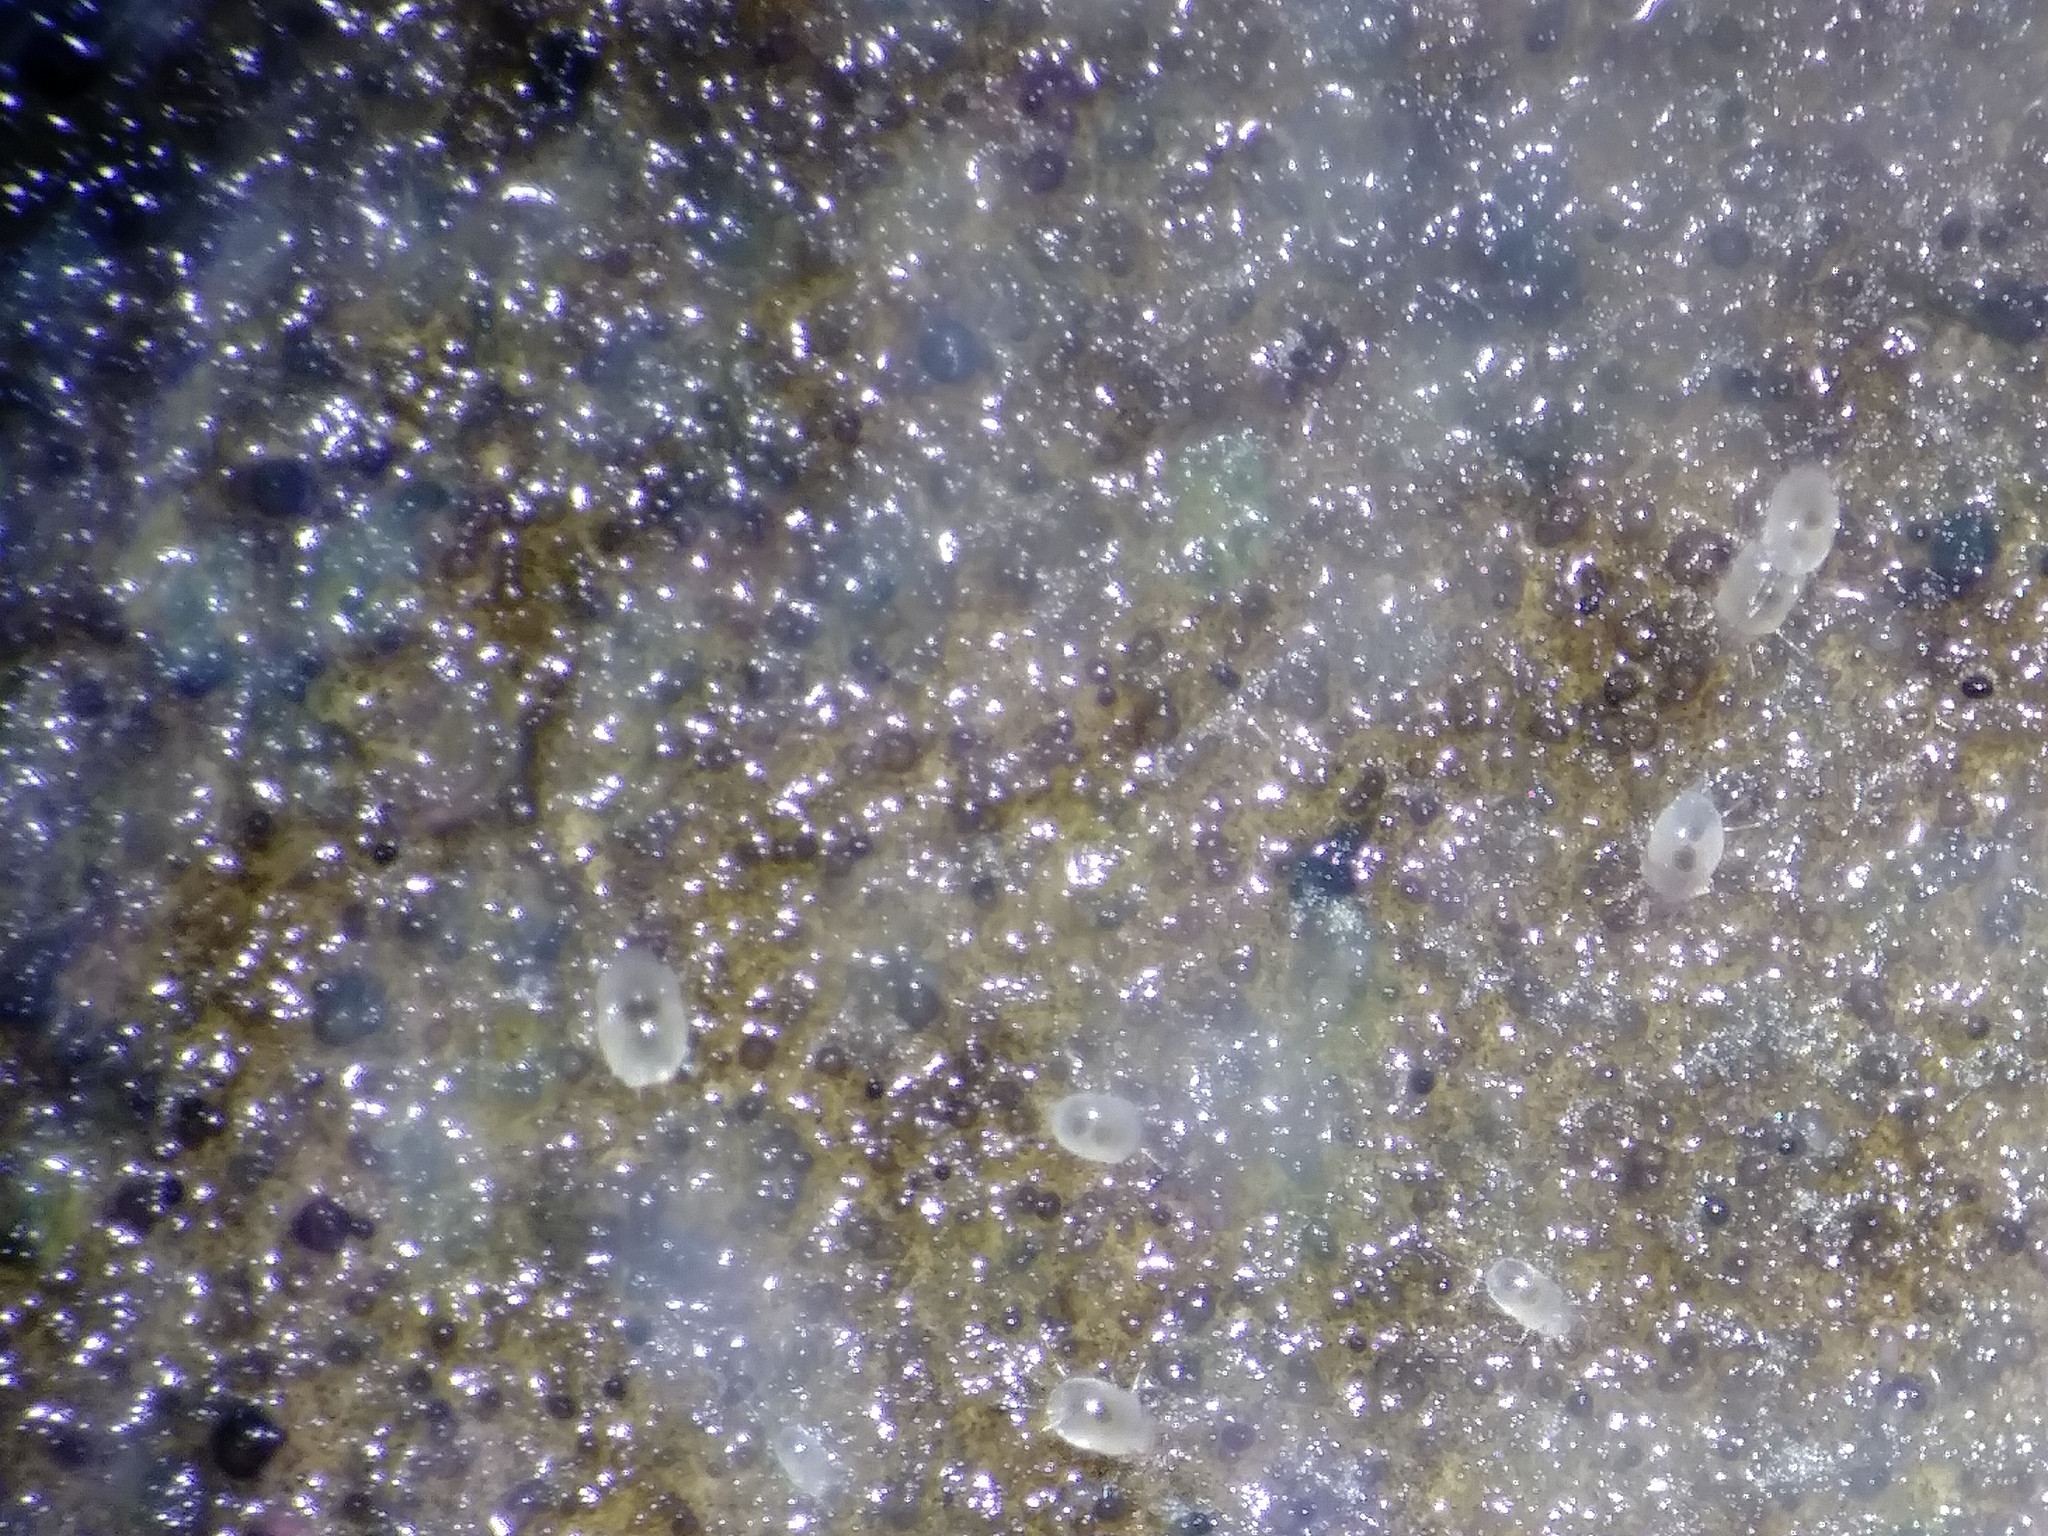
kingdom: Animalia
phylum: Arthropoda
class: Arachnida
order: Sarcoptiformes
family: Acaridae
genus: Tyrophagus
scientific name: Tyrophagus putrescentiae
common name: Mite
